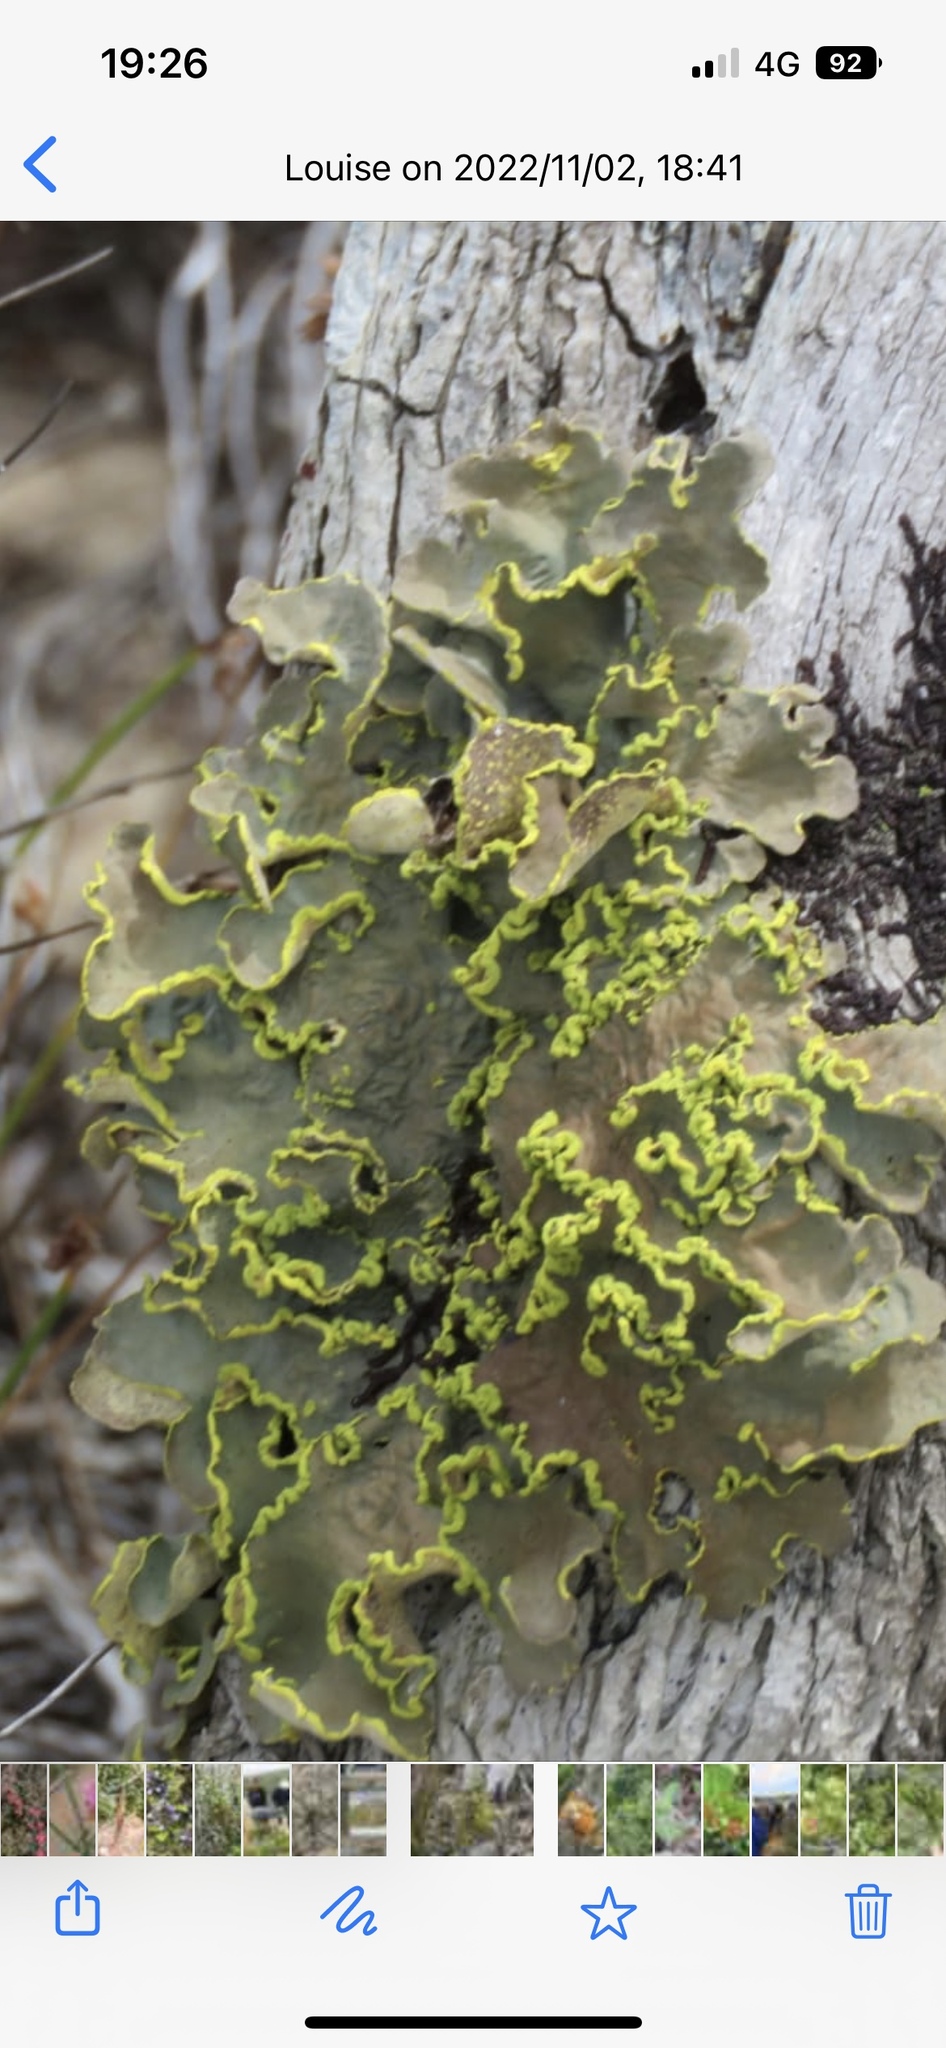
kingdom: Fungi
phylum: Ascomycota
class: Lecanoromycetes
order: Peltigerales
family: Lobariaceae
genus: Pseudocyphellaria
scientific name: Pseudocyphellaria aurata
